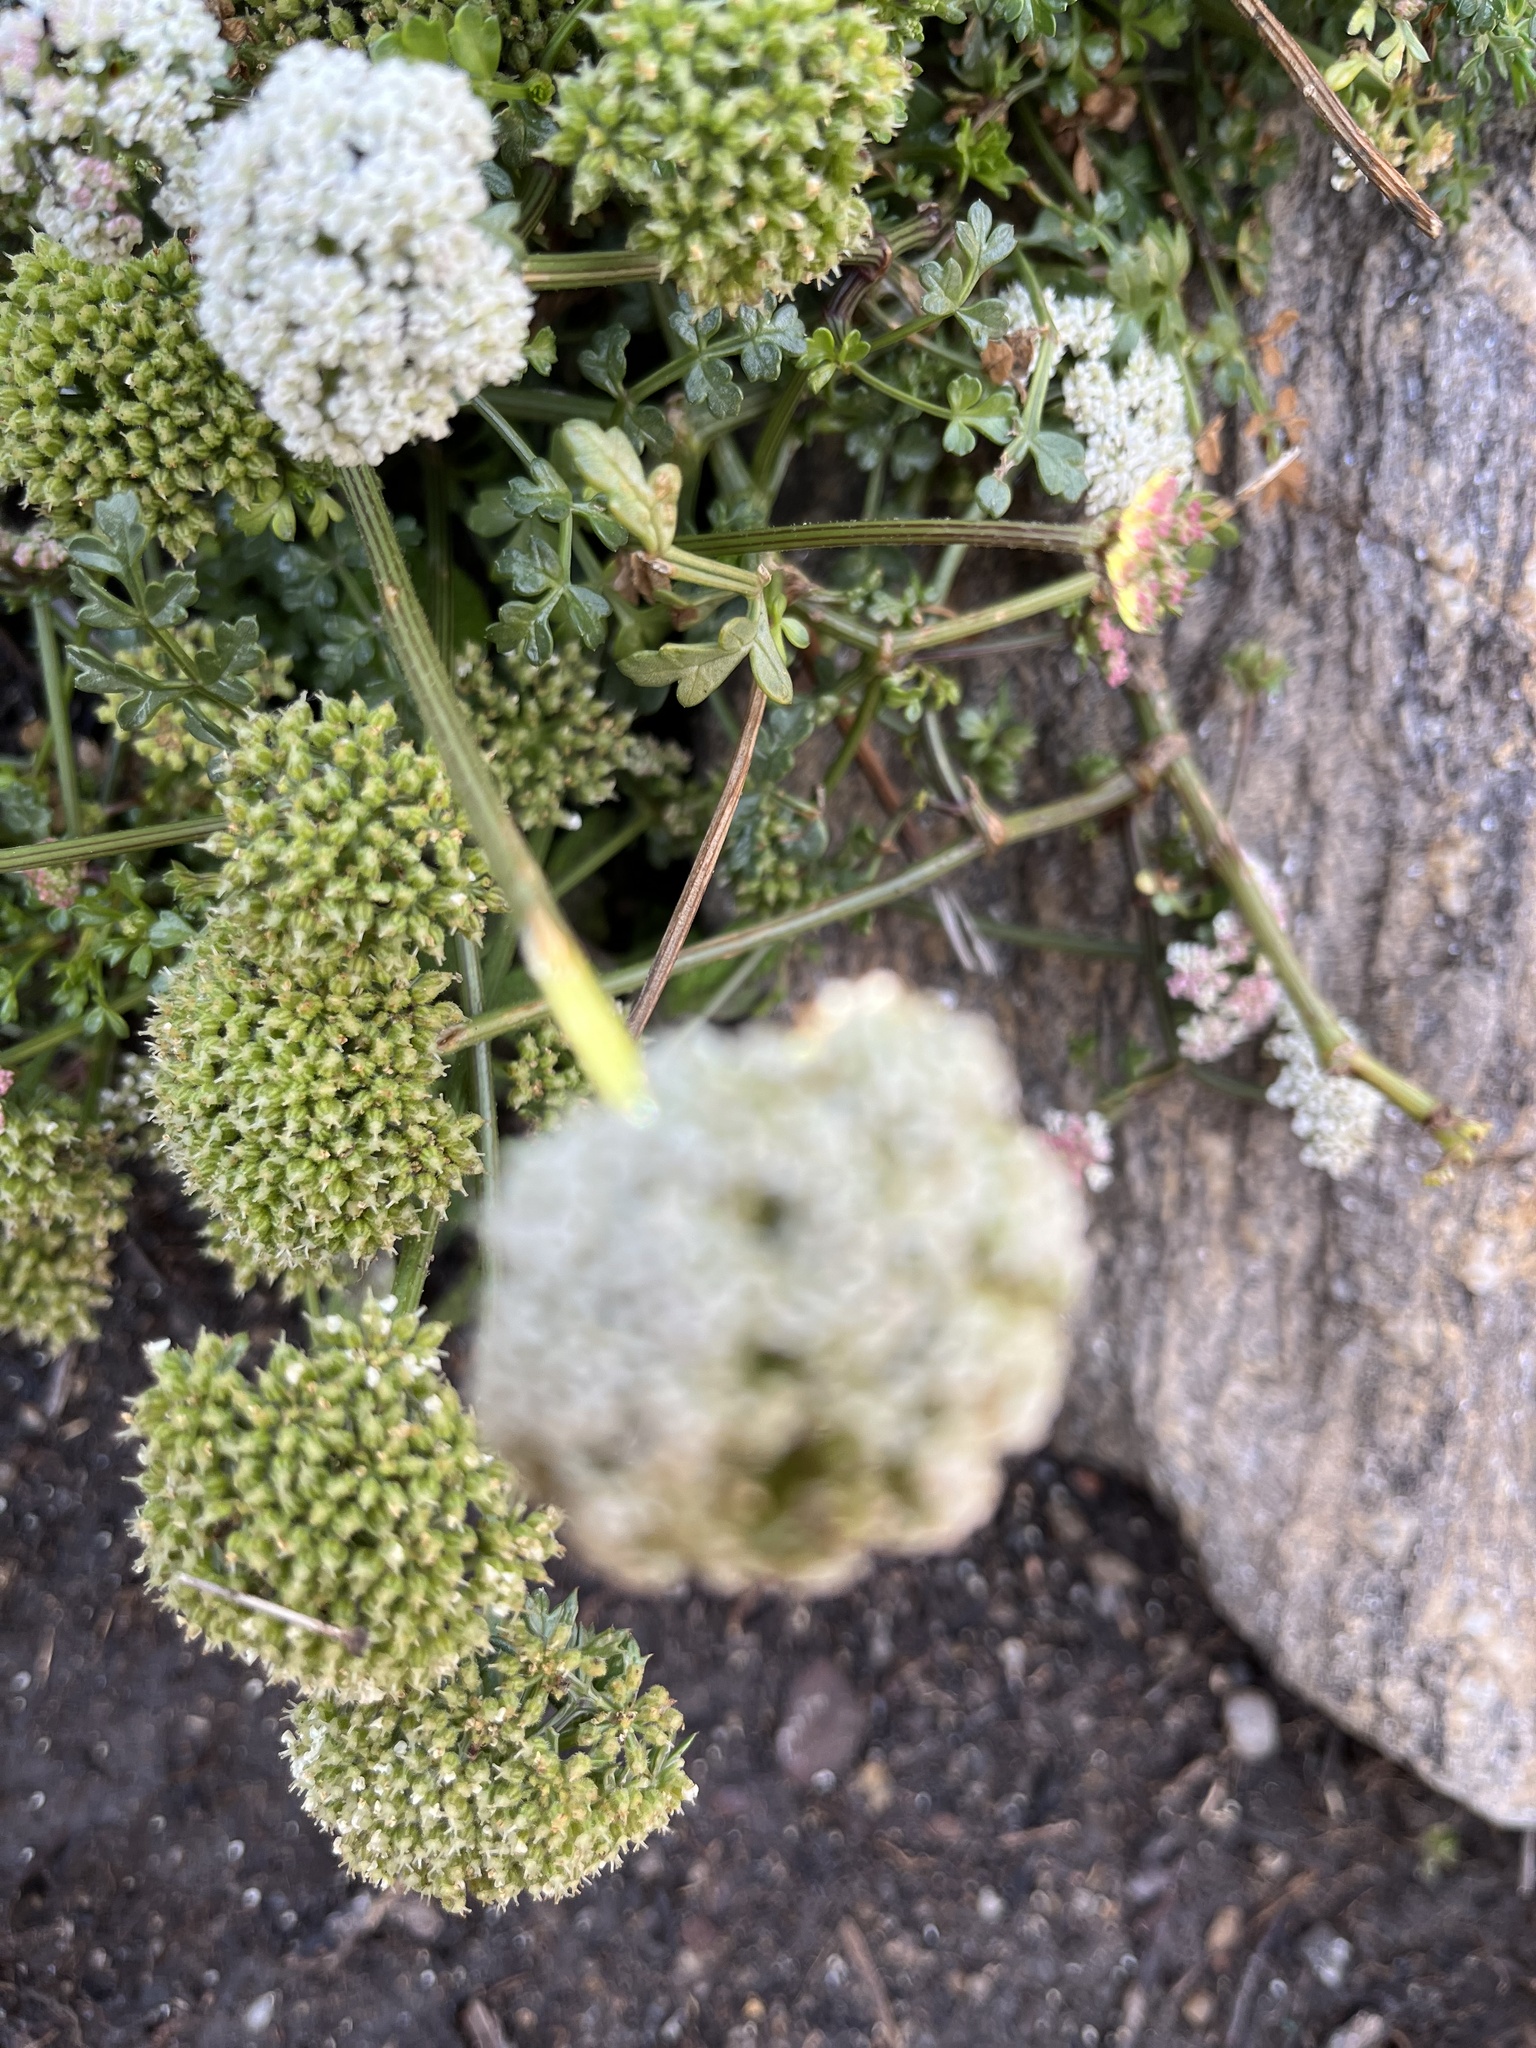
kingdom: Plantae
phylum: Tracheophyta
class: Magnoliopsida
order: Apiales
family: Apiaceae
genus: Daucus
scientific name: Daucus carota
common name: Wild carrot
